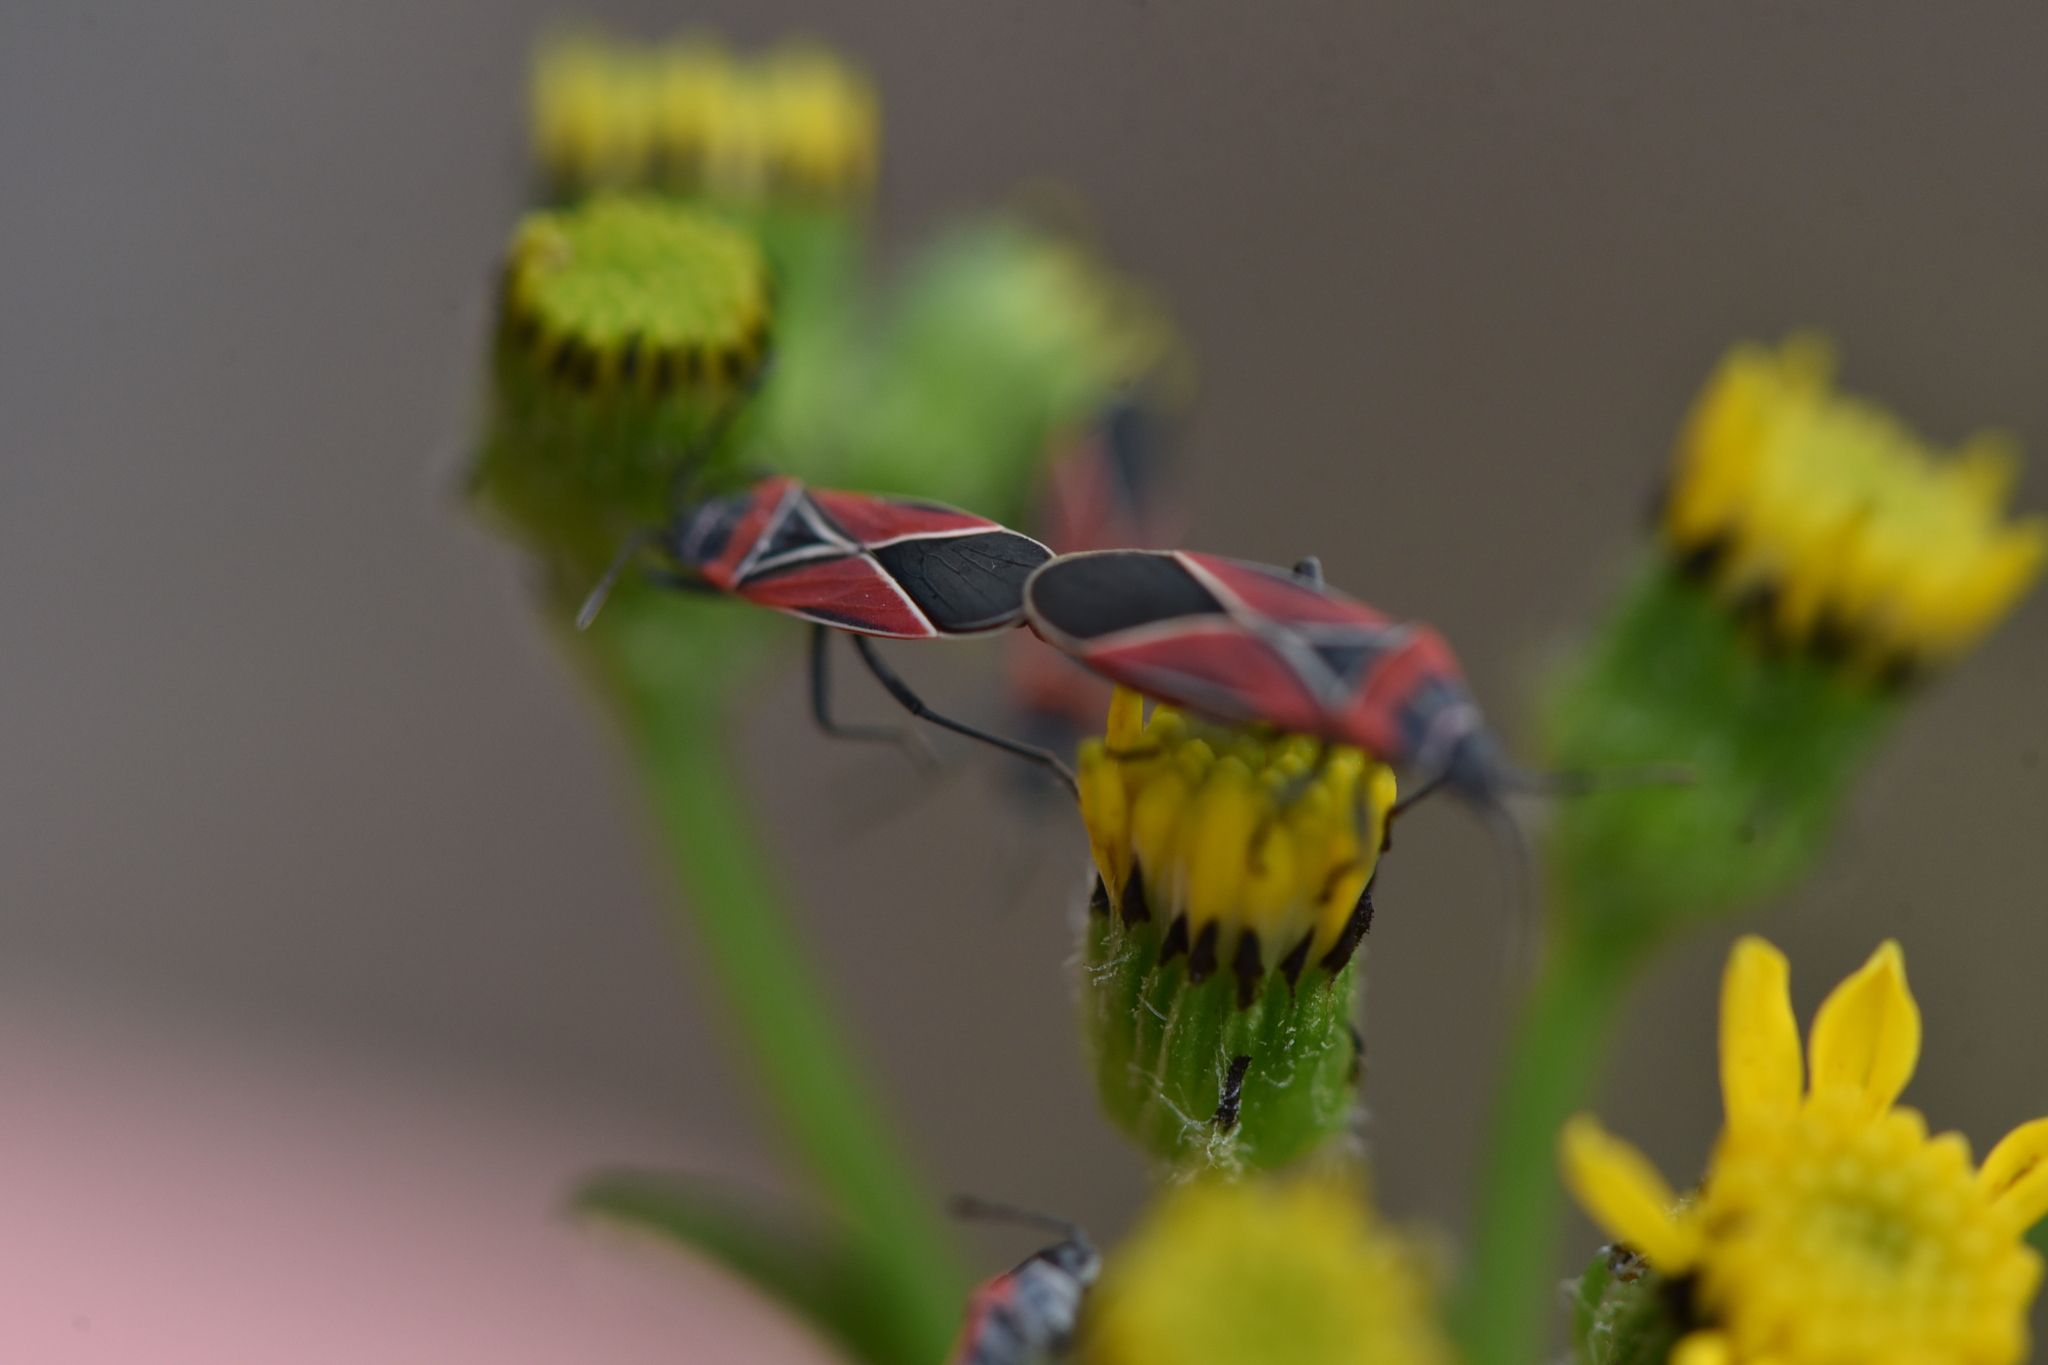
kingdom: Animalia
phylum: Arthropoda
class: Insecta
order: Hemiptera
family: Lygaeidae
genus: Neacoryphus
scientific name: Neacoryphus bicrucis
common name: Lygaeid bug
